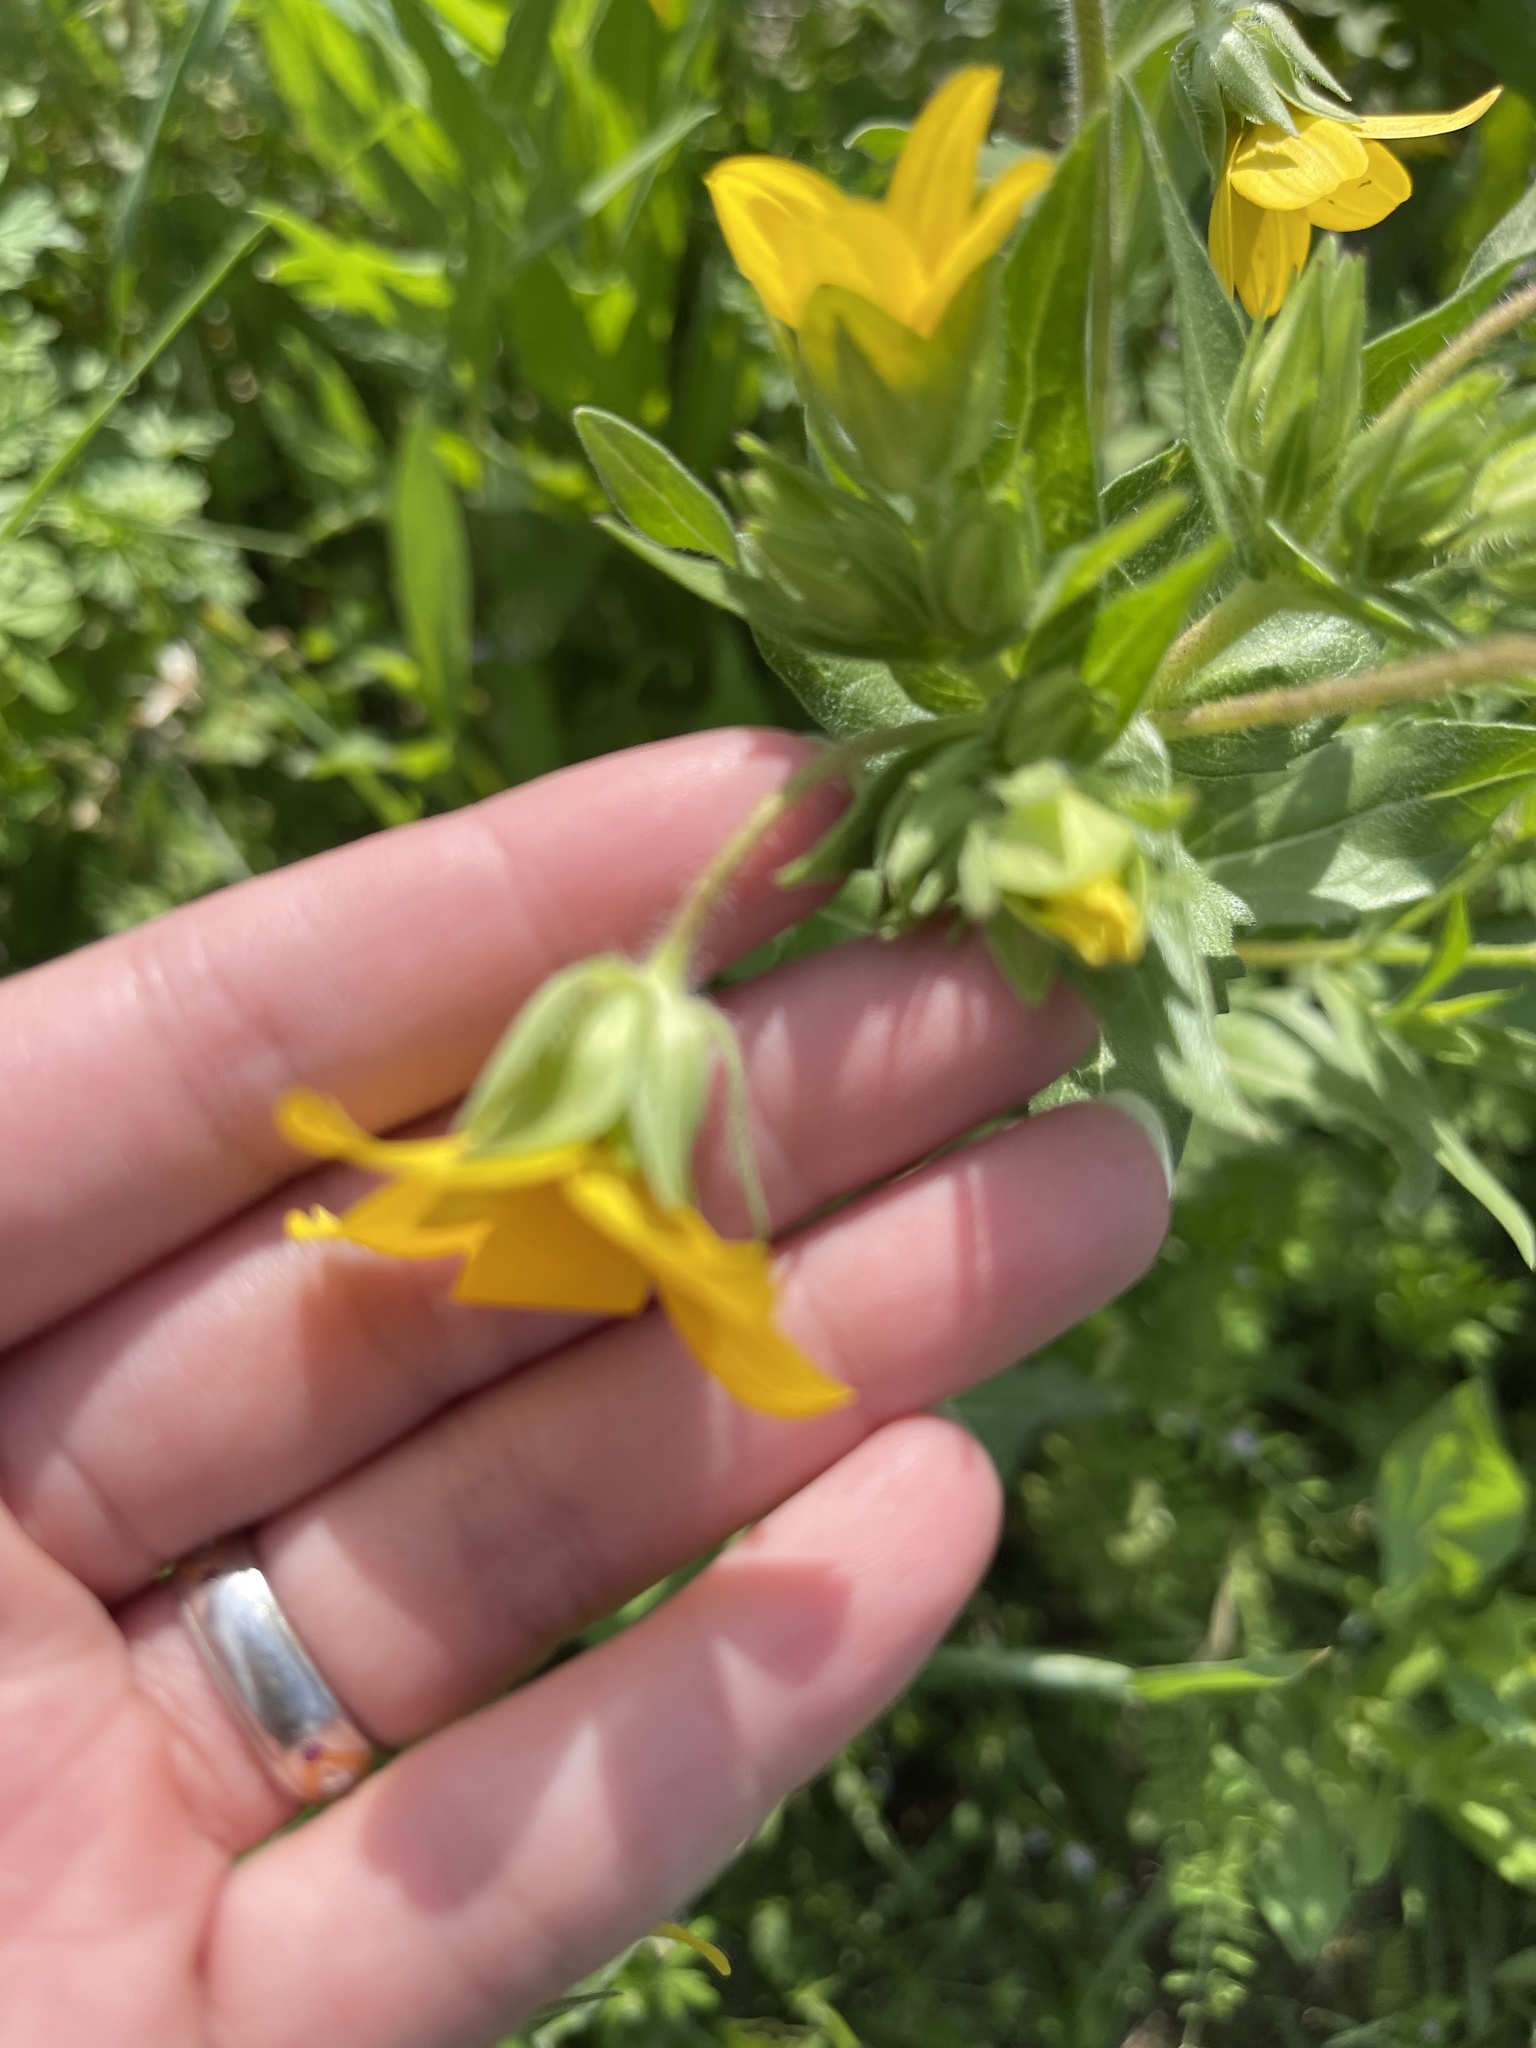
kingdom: Plantae
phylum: Tracheophyta
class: Magnoliopsida
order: Asterales
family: Asteraceae
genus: Lindheimera
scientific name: Lindheimera texana
